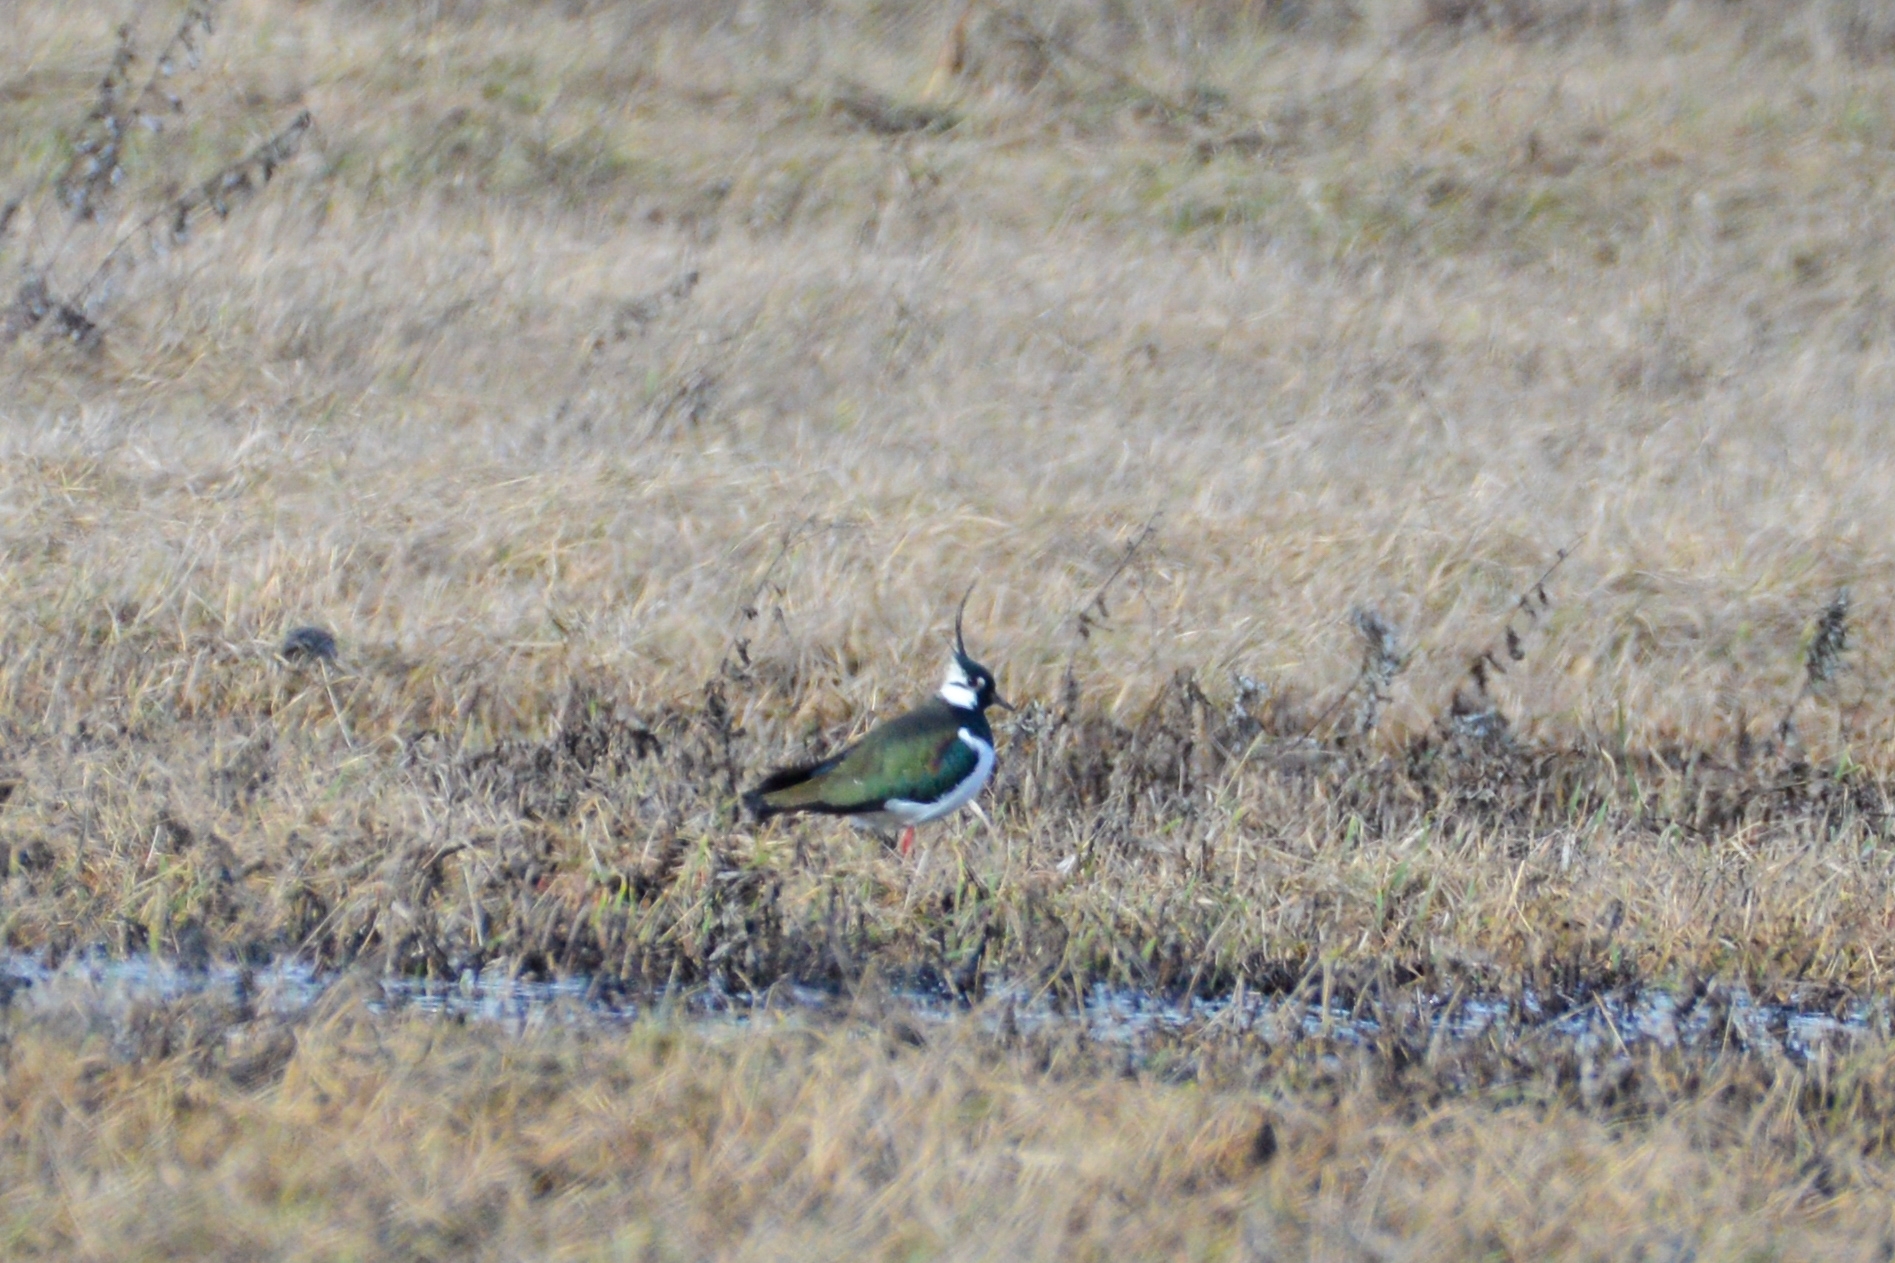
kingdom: Animalia
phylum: Chordata
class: Aves
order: Charadriiformes
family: Charadriidae
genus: Vanellus
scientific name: Vanellus vanellus
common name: Northern lapwing
